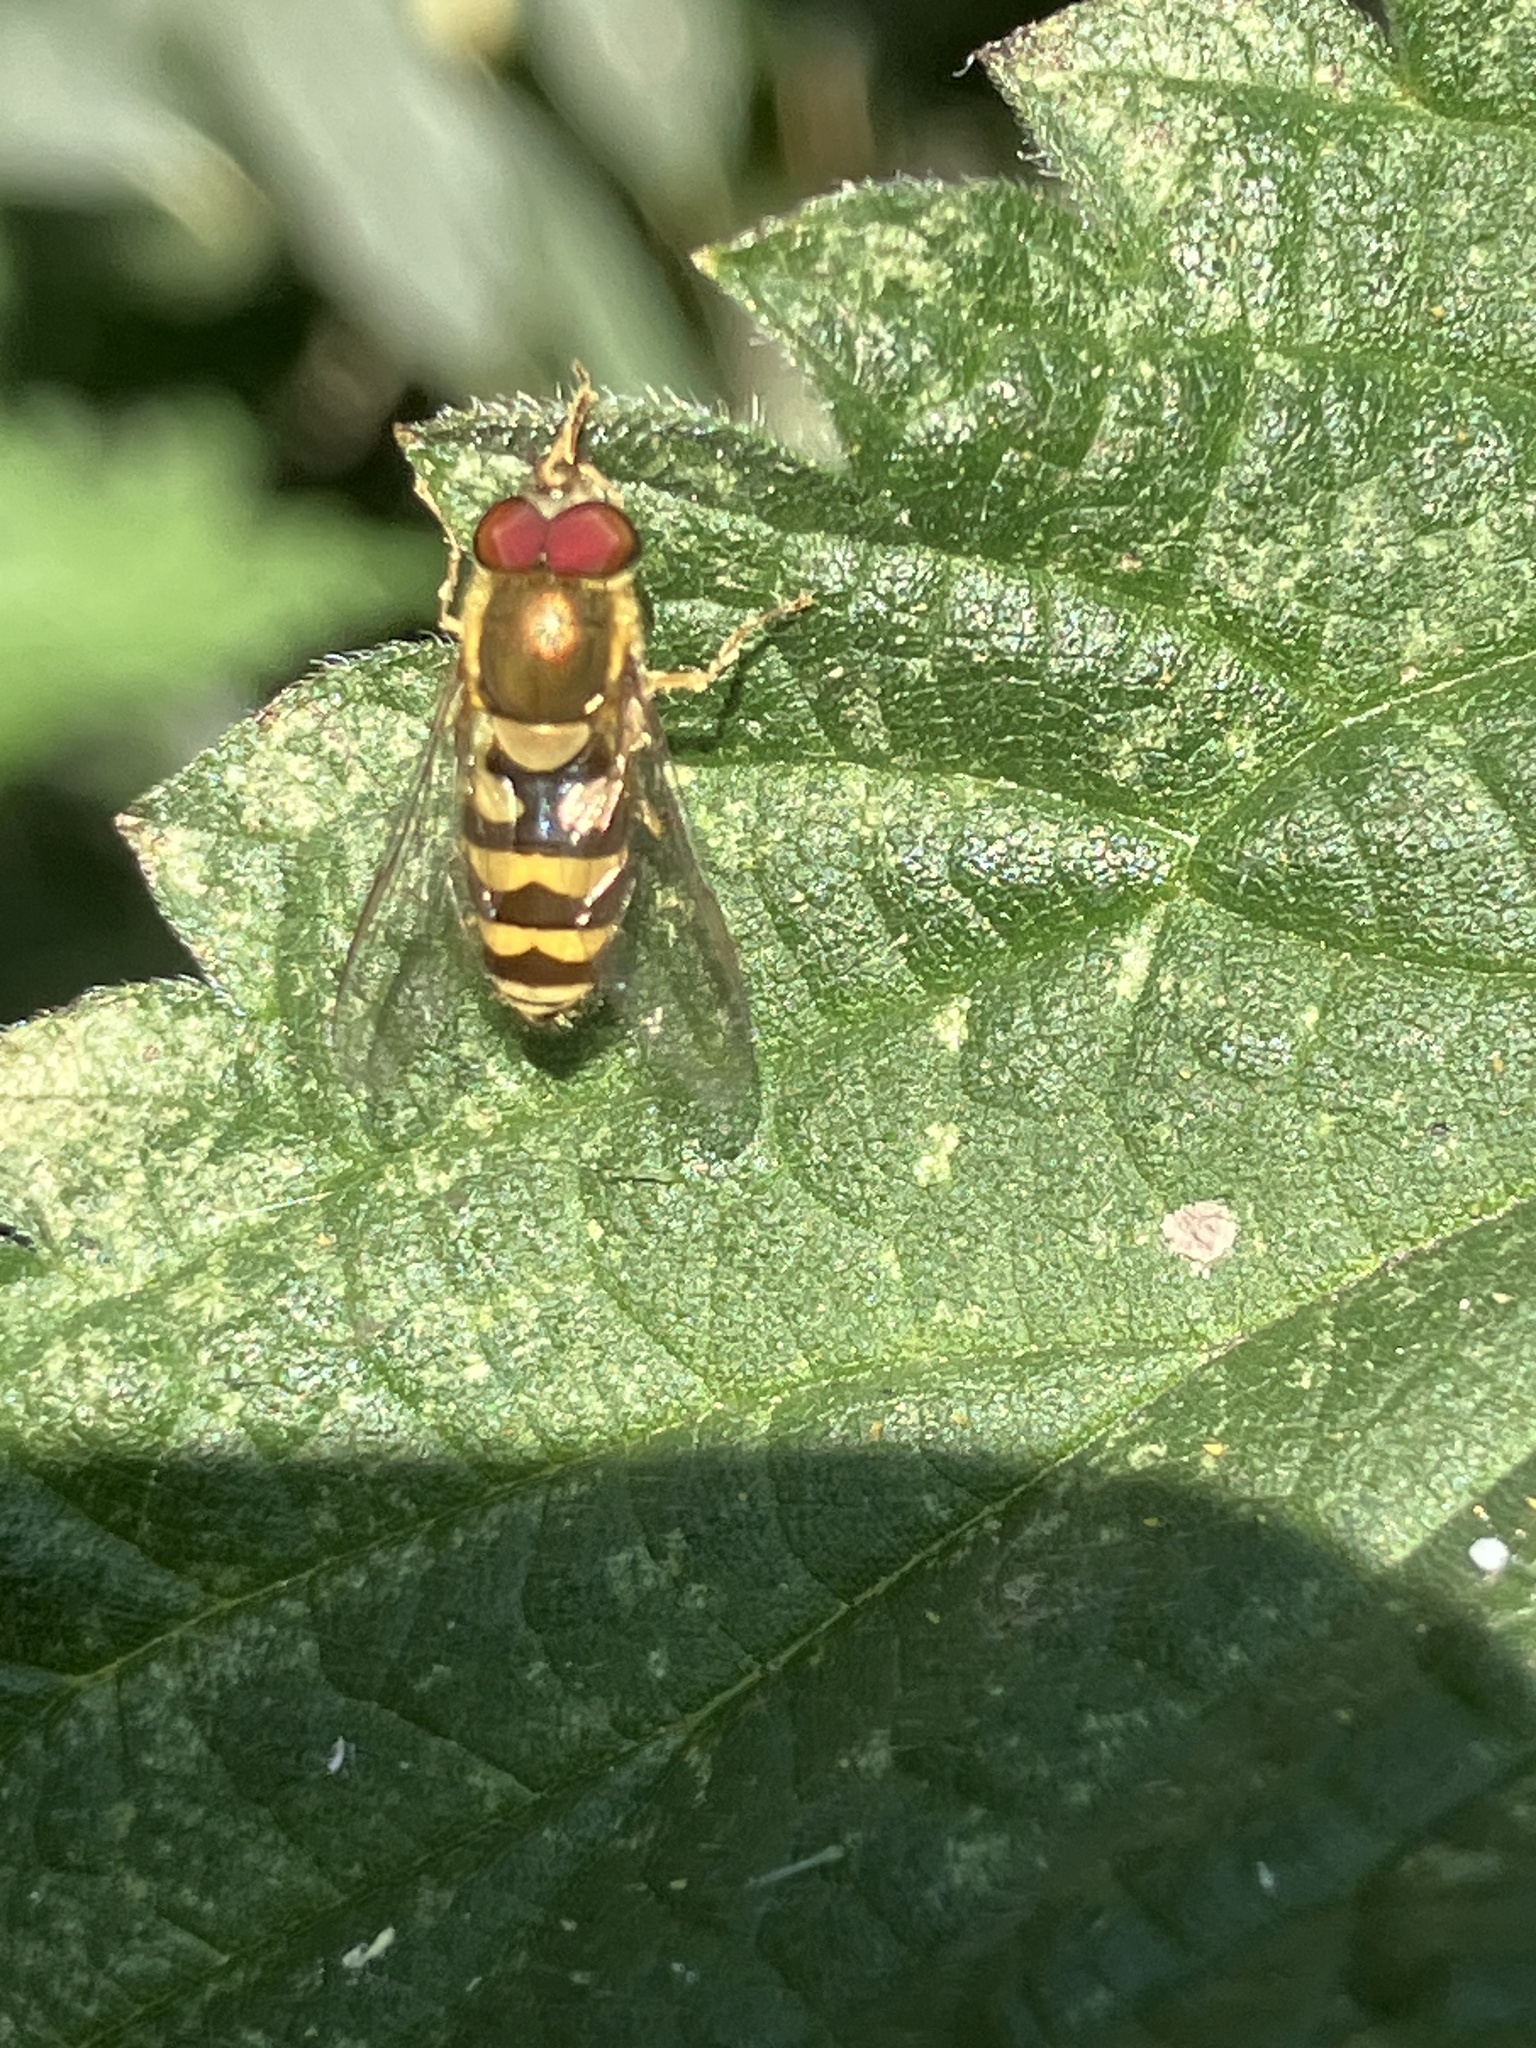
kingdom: Animalia
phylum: Arthropoda
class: Insecta
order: Diptera
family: Syrphidae
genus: Syrphus
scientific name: Syrphus
